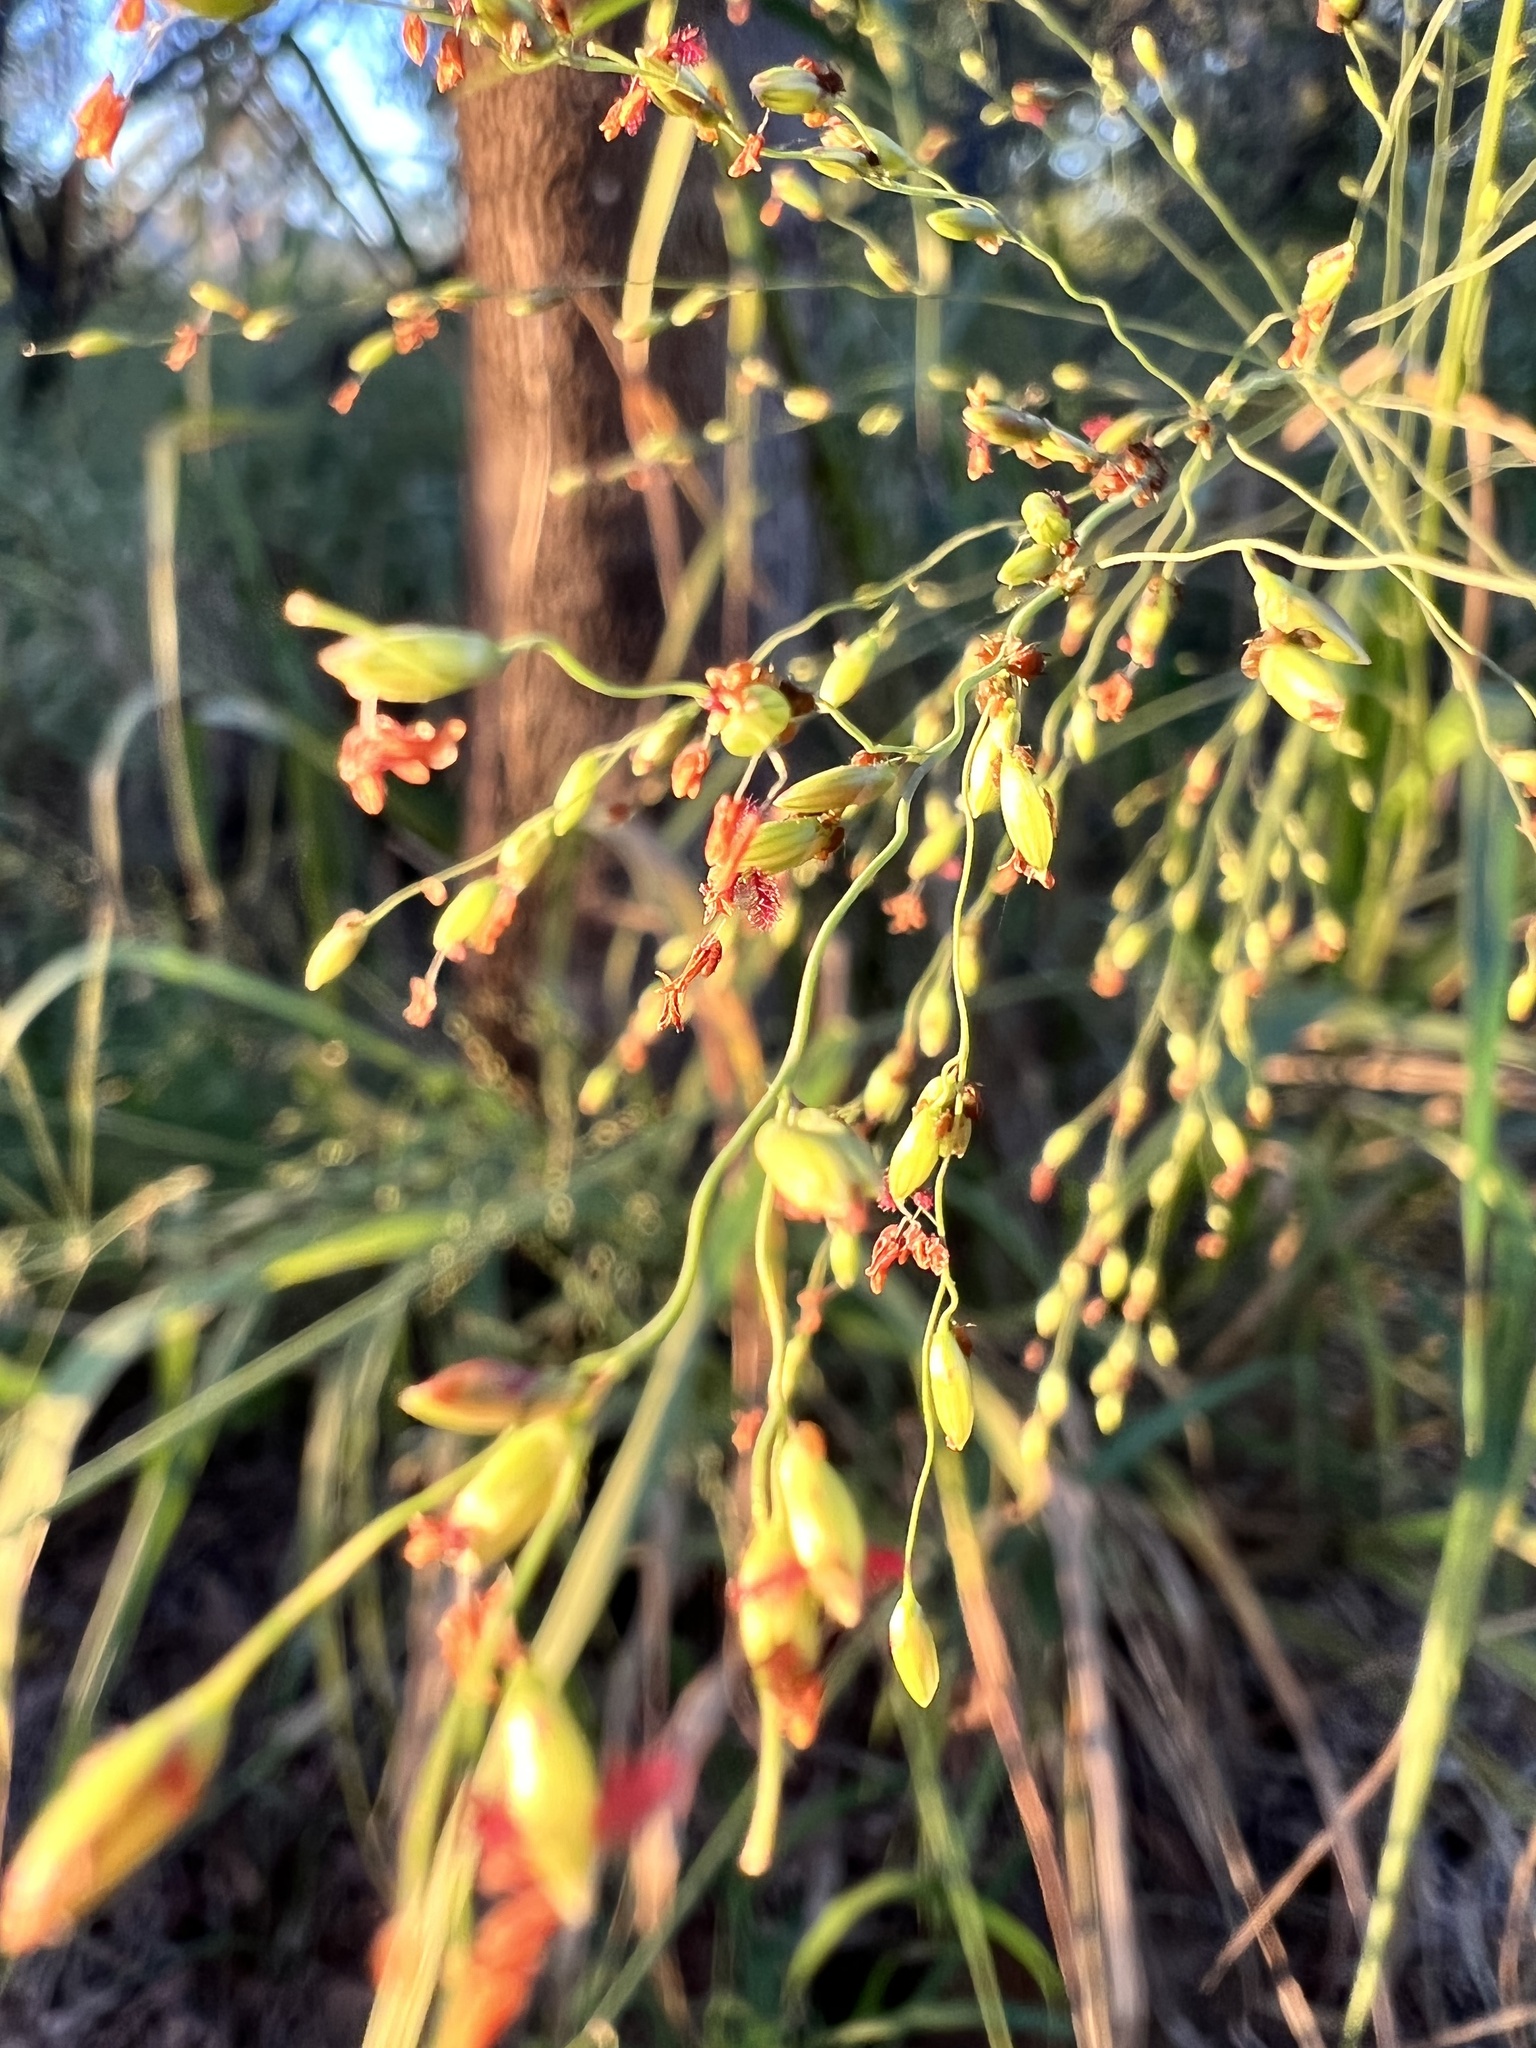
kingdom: Plantae
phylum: Tracheophyta
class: Liliopsida
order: Poales
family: Poaceae
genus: Megathyrsus
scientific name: Megathyrsus maximus
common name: Guineagrass
